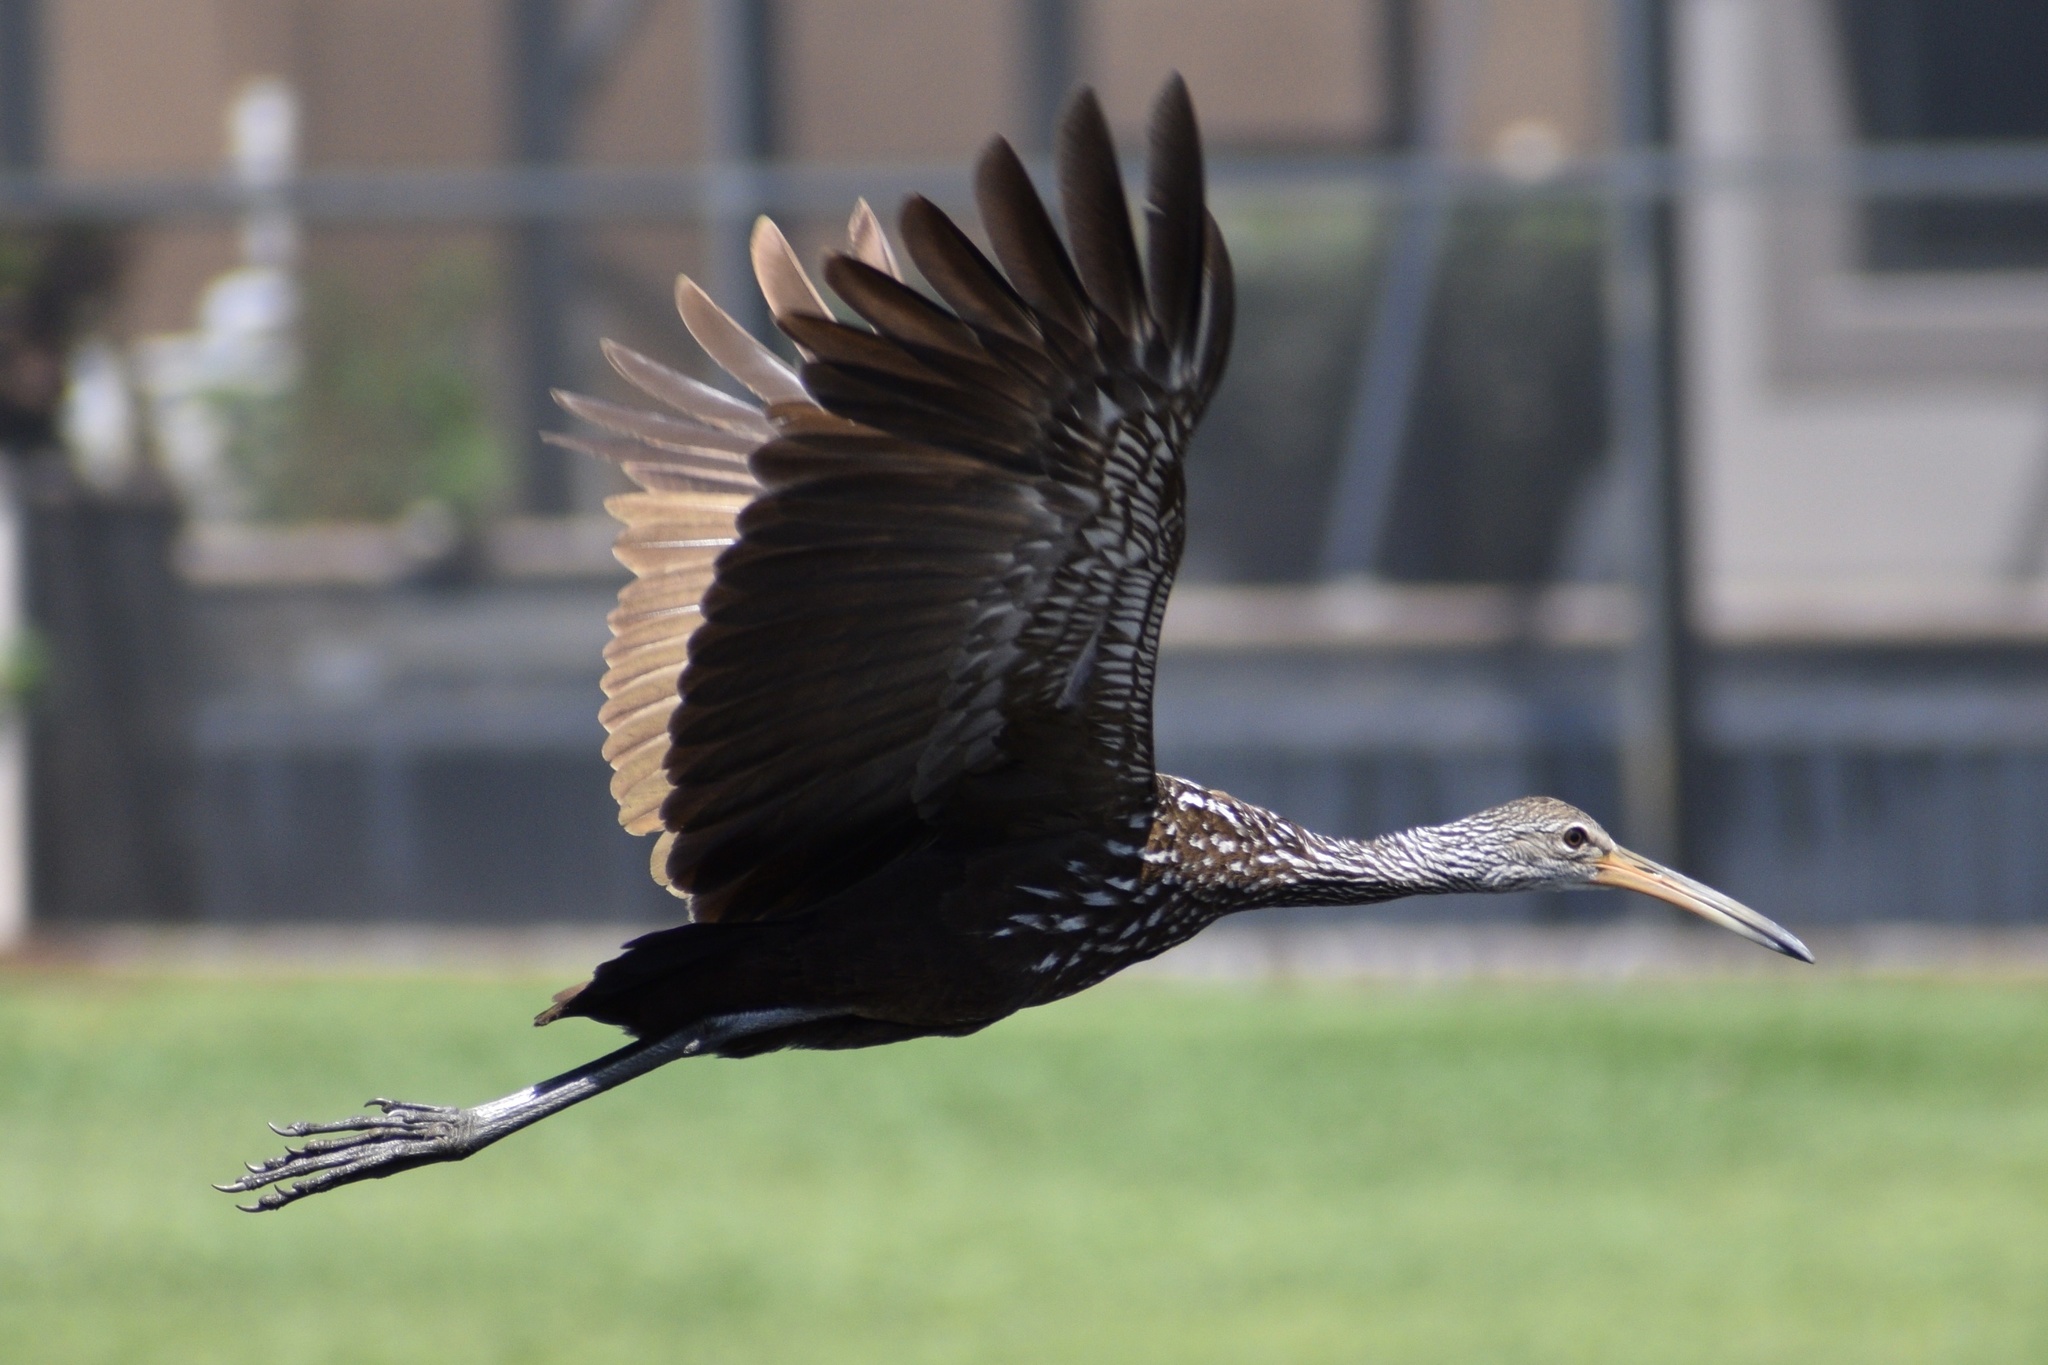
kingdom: Animalia
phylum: Chordata
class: Aves
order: Gruiformes
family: Aramidae
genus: Aramus
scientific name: Aramus guarauna
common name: Limpkin
